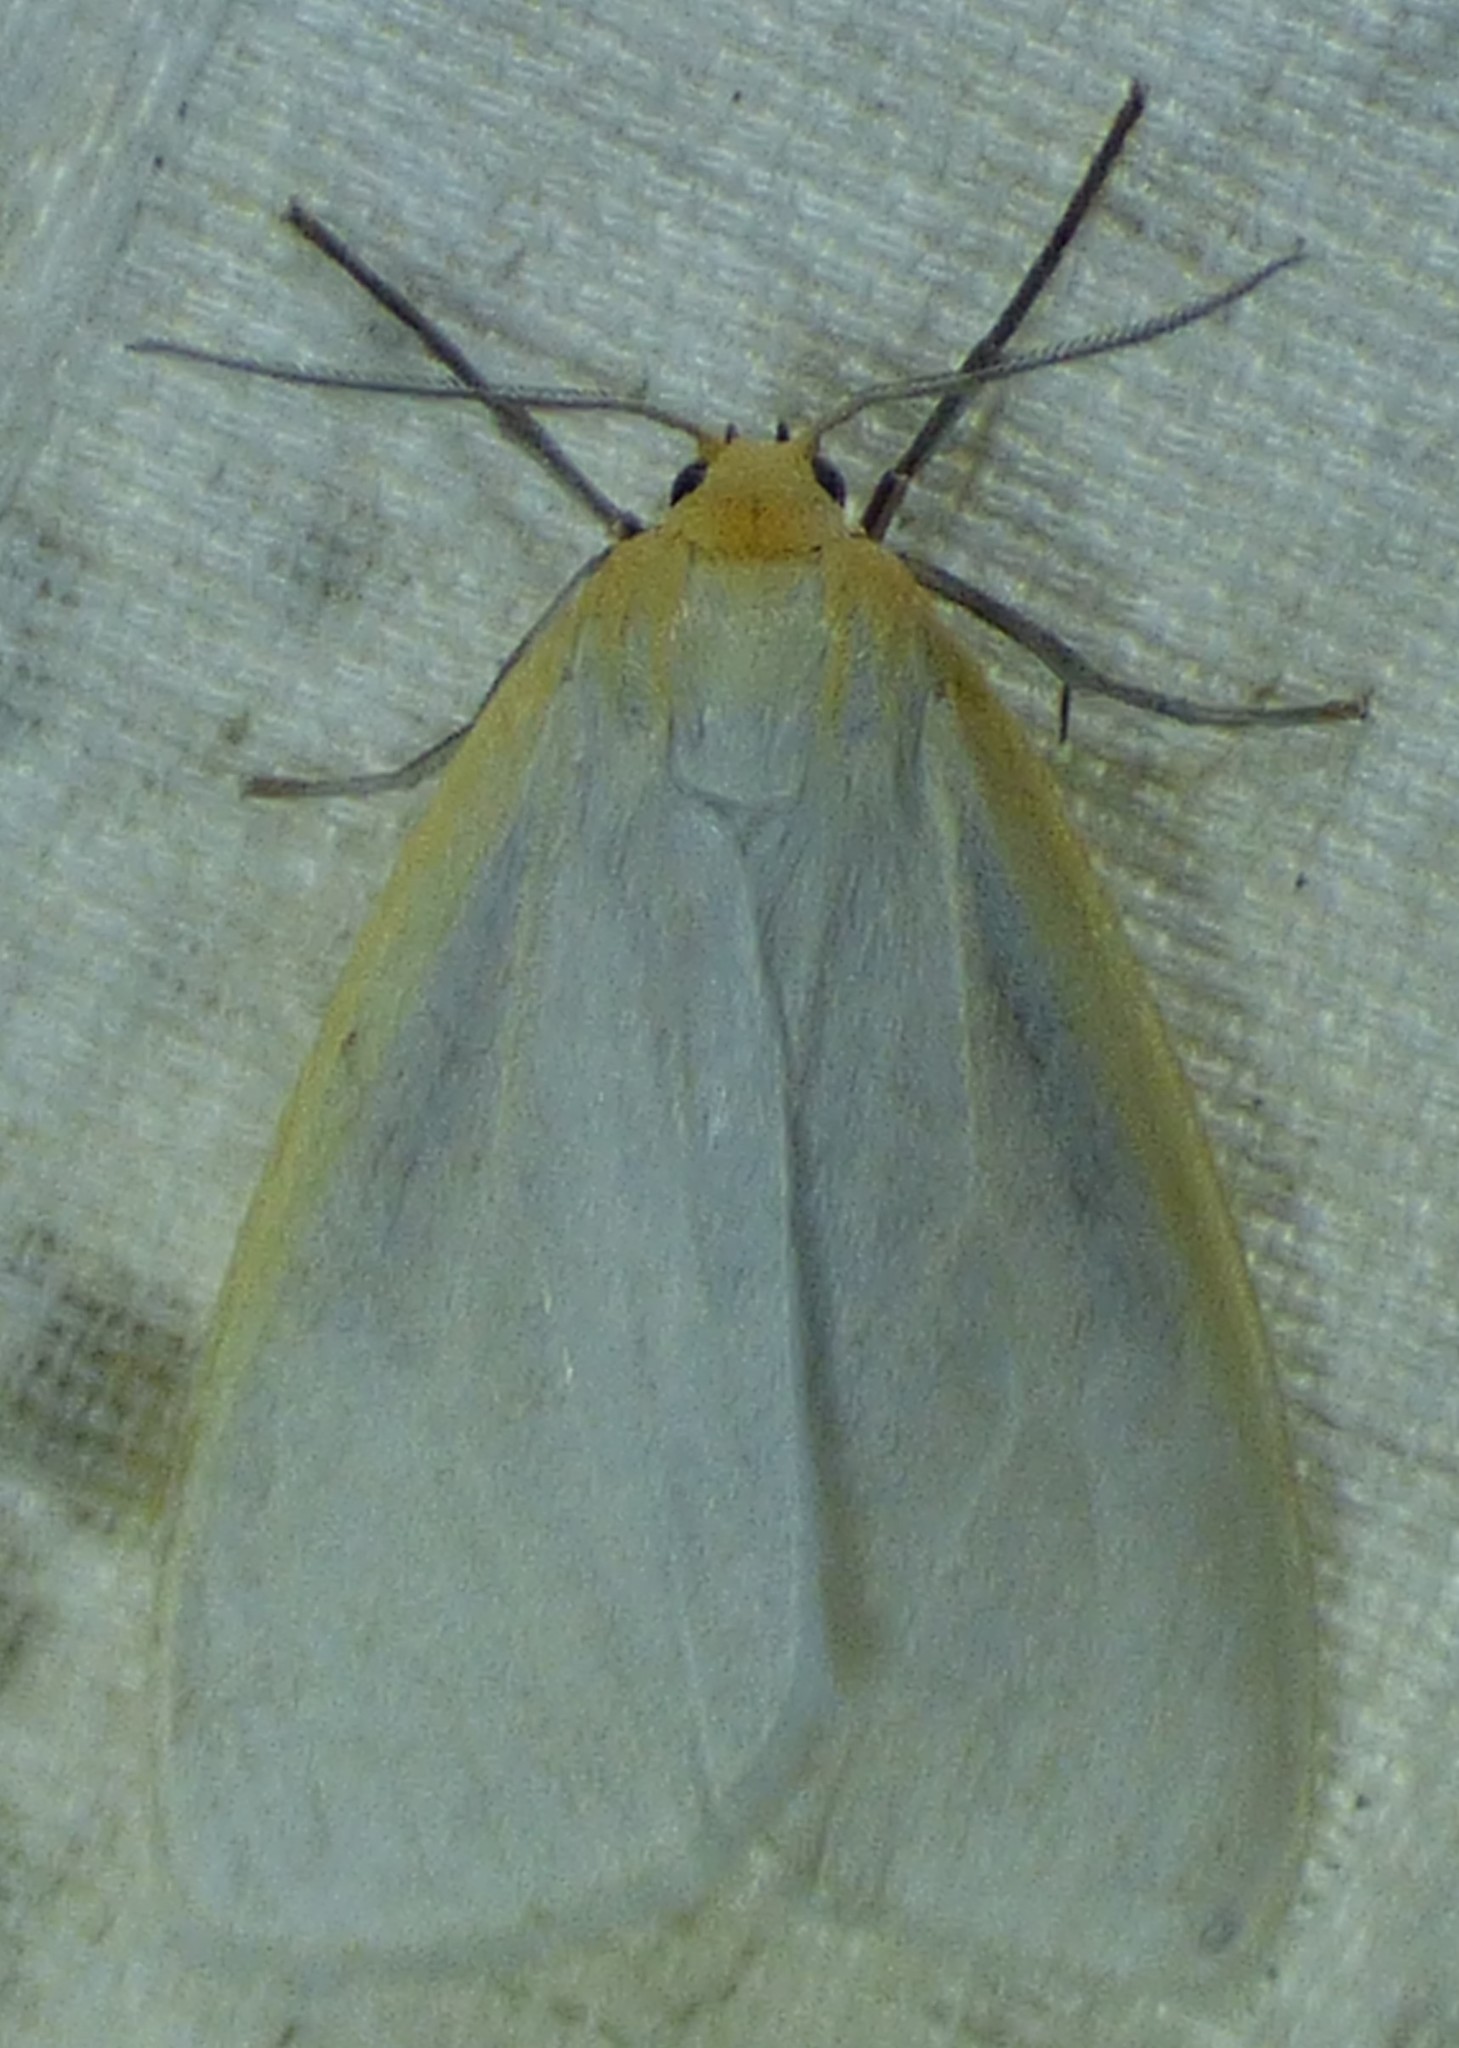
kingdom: Animalia
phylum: Arthropoda
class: Insecta
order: Lepidoptera
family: Erebidae
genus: Cycnia
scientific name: Cycnia tenera
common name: Delicate cycnia moth
